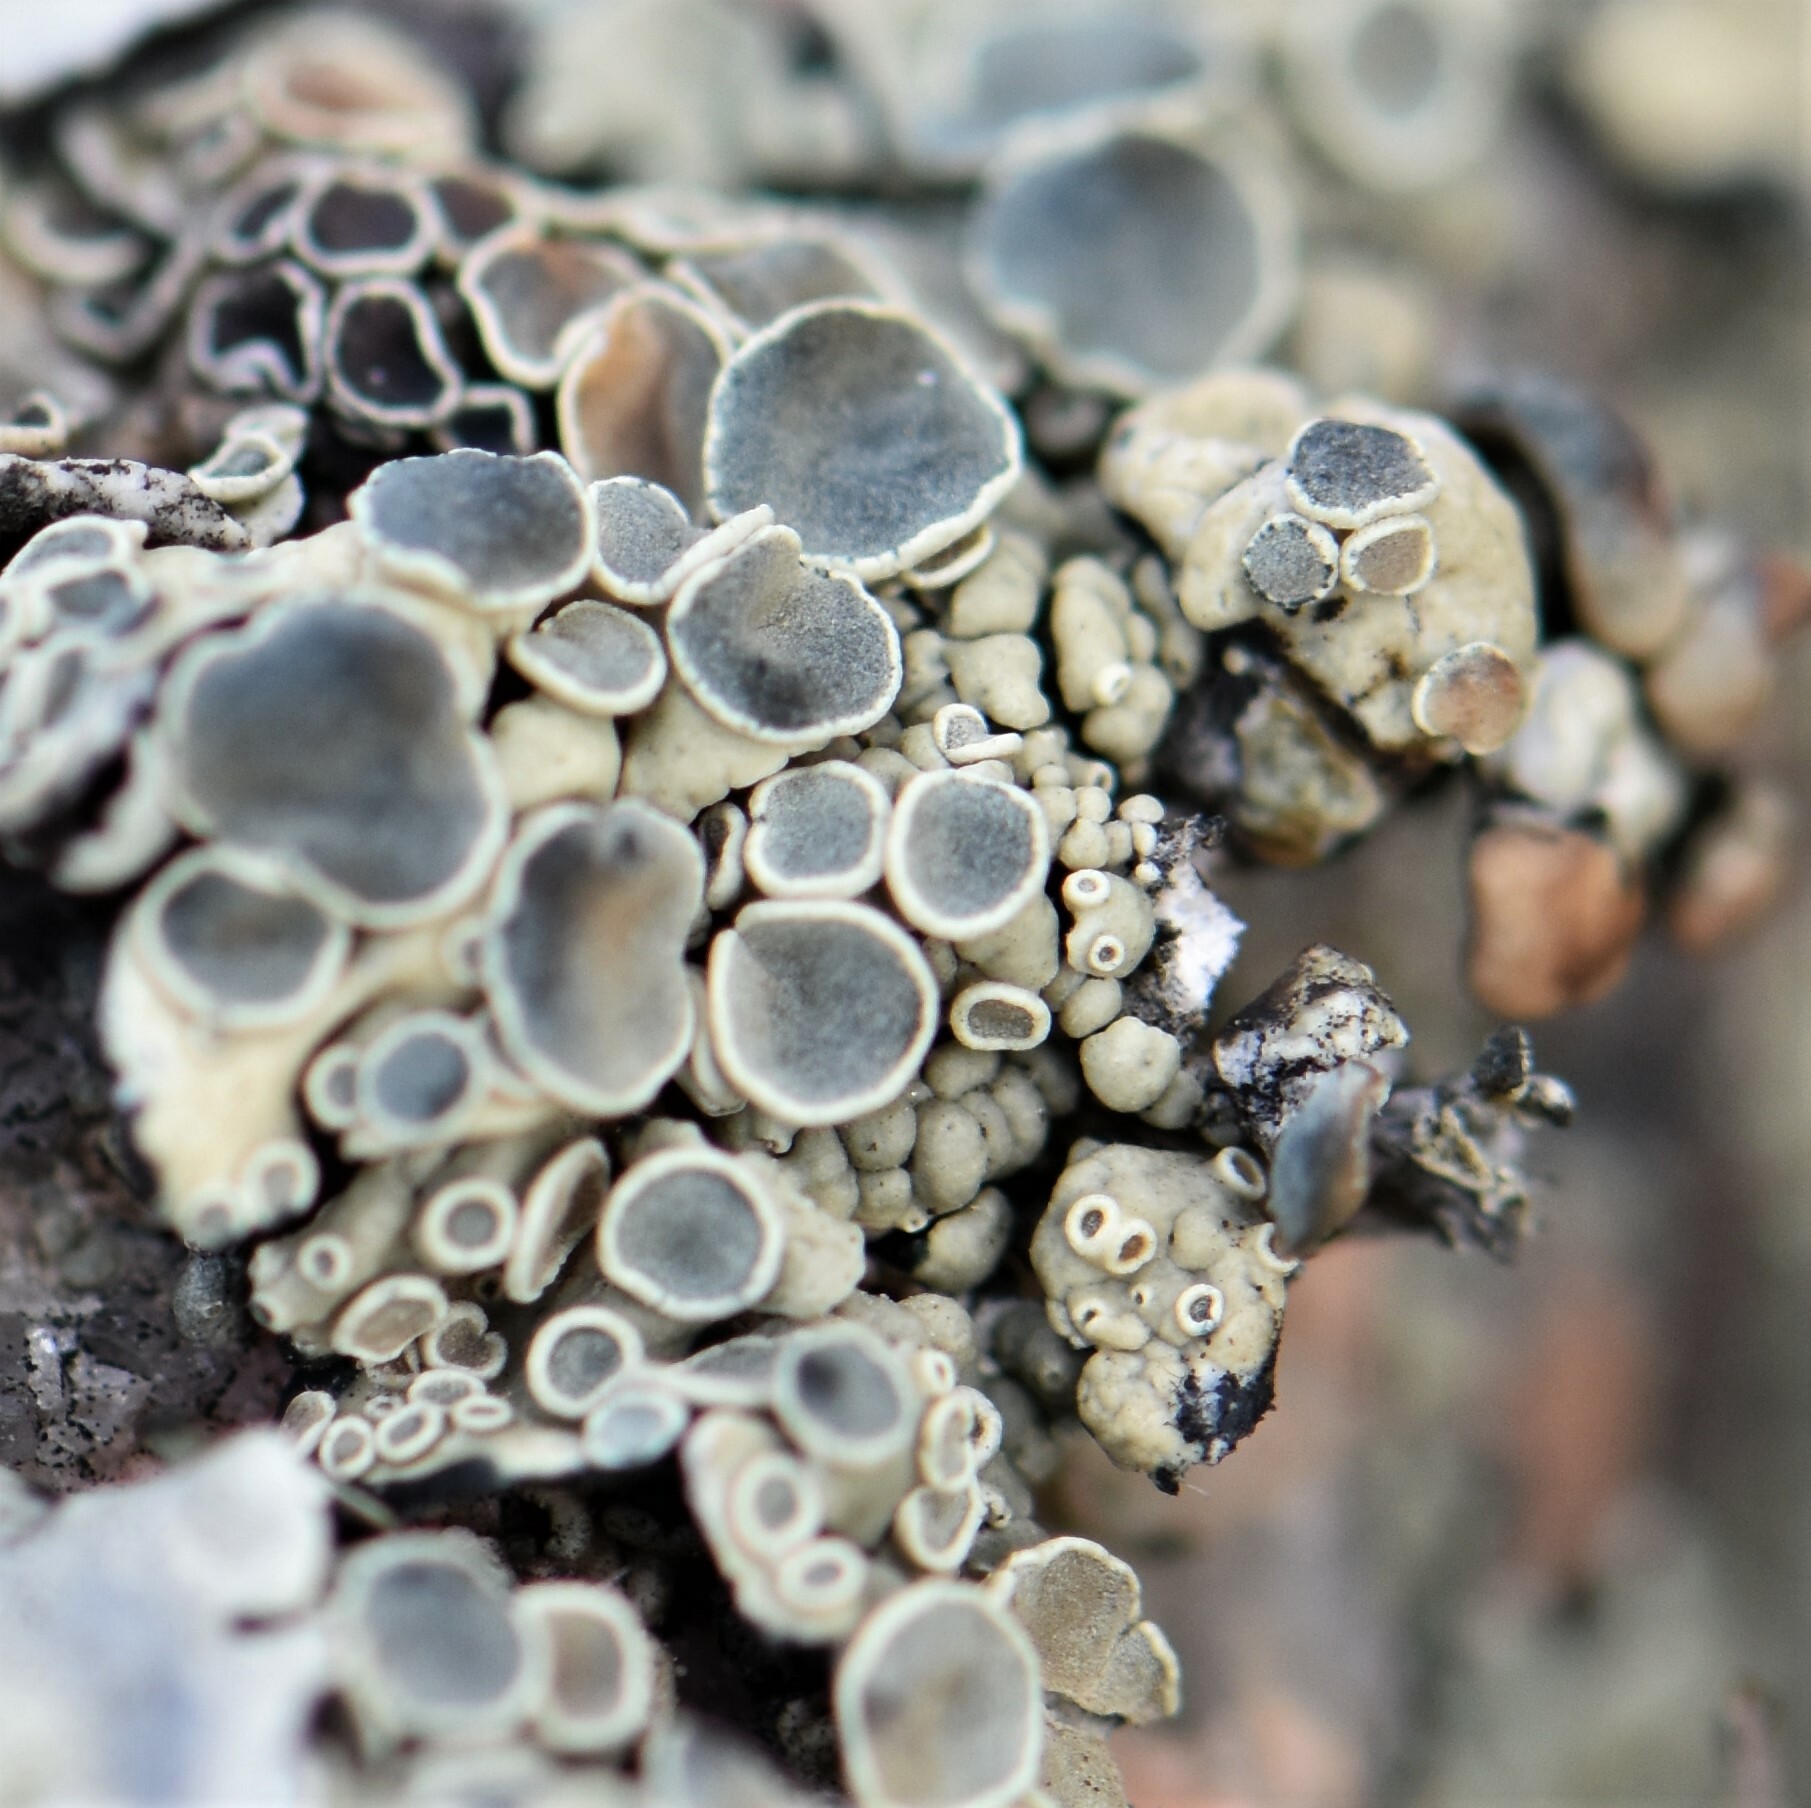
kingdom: Fungi
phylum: Ascomycota
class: Lecanoromycetes
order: Lecanorales
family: Lecanoraceae
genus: Rhizoplaca
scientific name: Rhizoplaca melanophthalma
